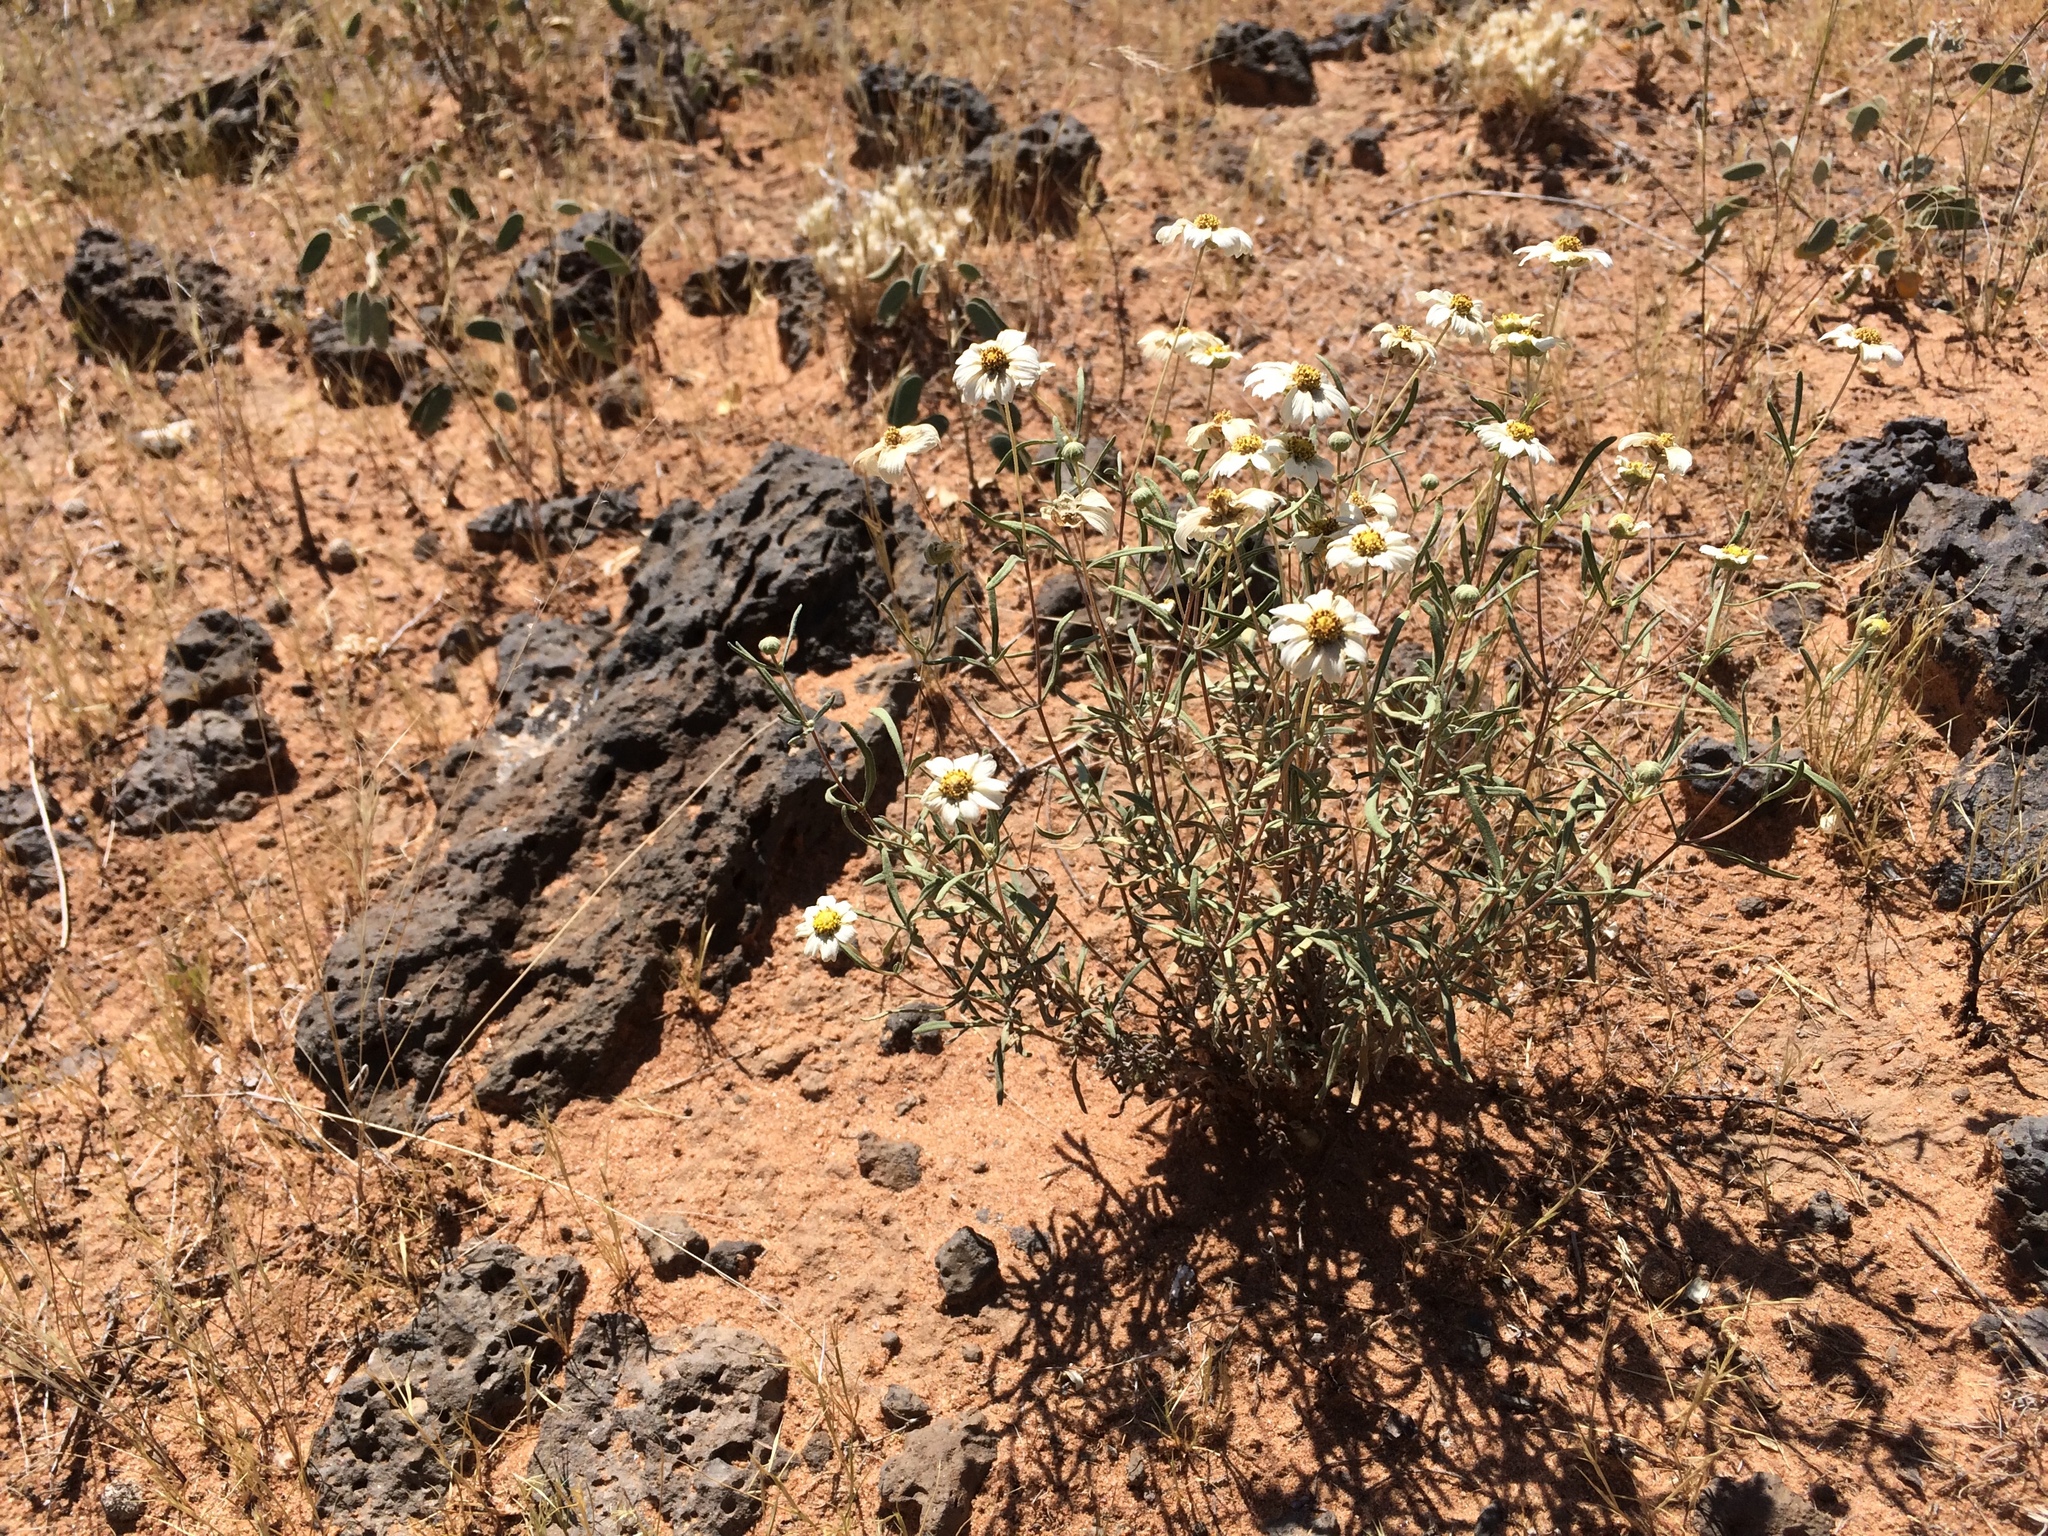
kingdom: Plantae
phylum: Tracheophyta
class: Magnoliopsida
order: Asterales
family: Asteraceae
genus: Melampodium
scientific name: Melampodium leucanthum
